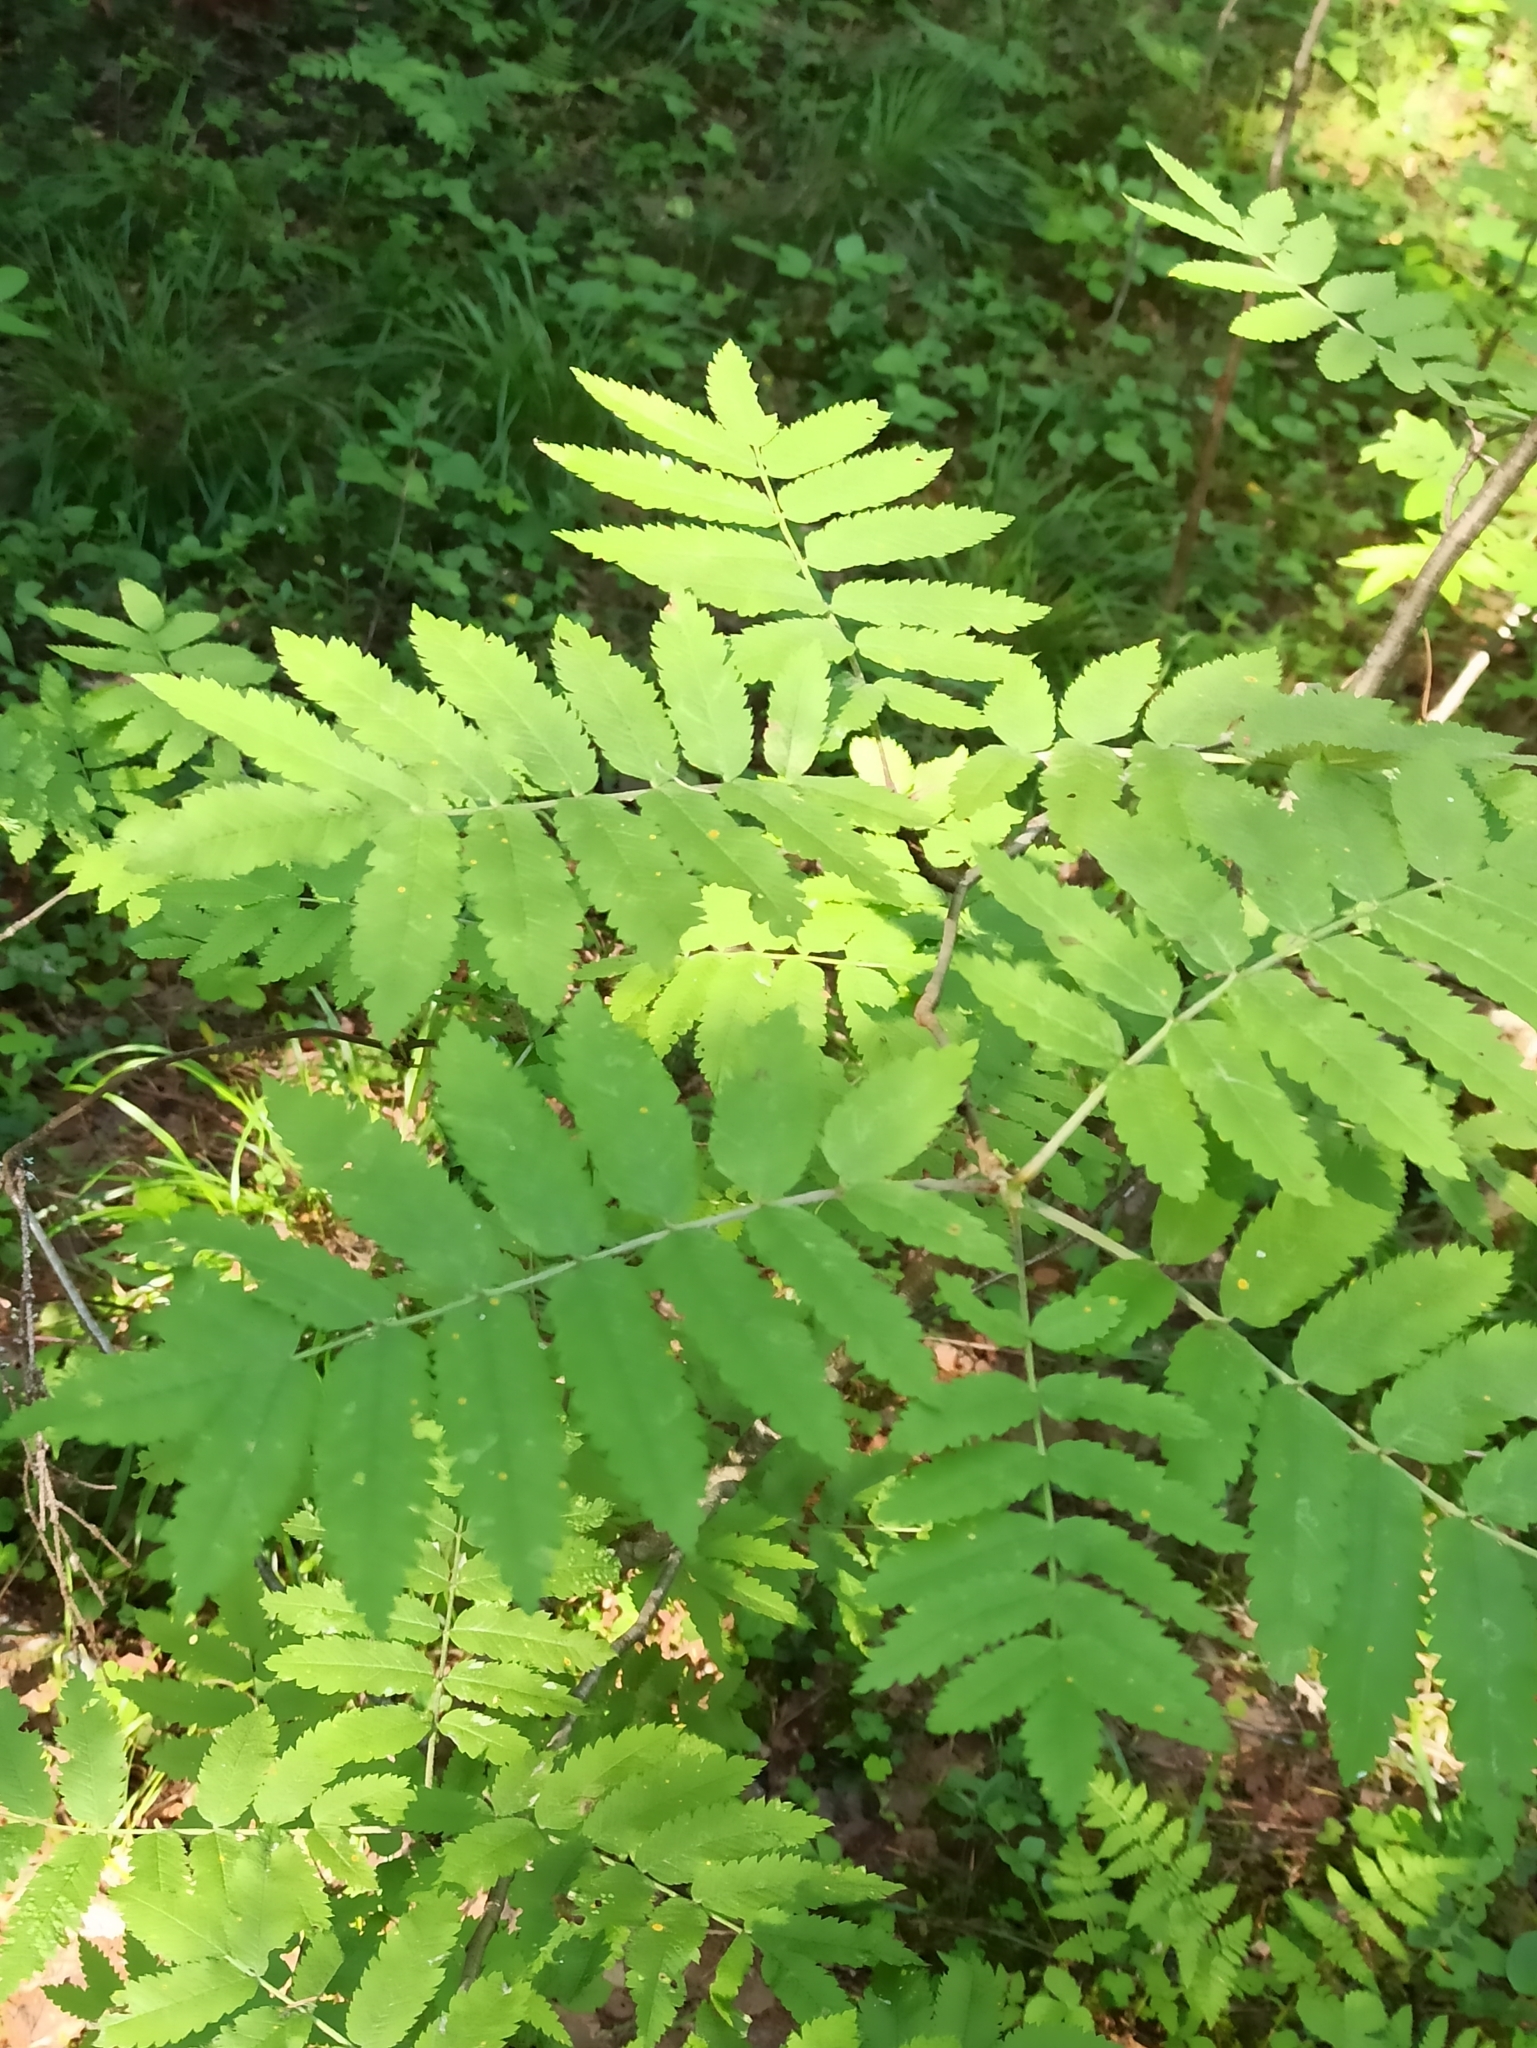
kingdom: Plantae
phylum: Tracheophyta
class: Magnoliopsida
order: Rosales
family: Rosaceae
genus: Sorbus
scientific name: Sorbus aucuparia
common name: Rowan
